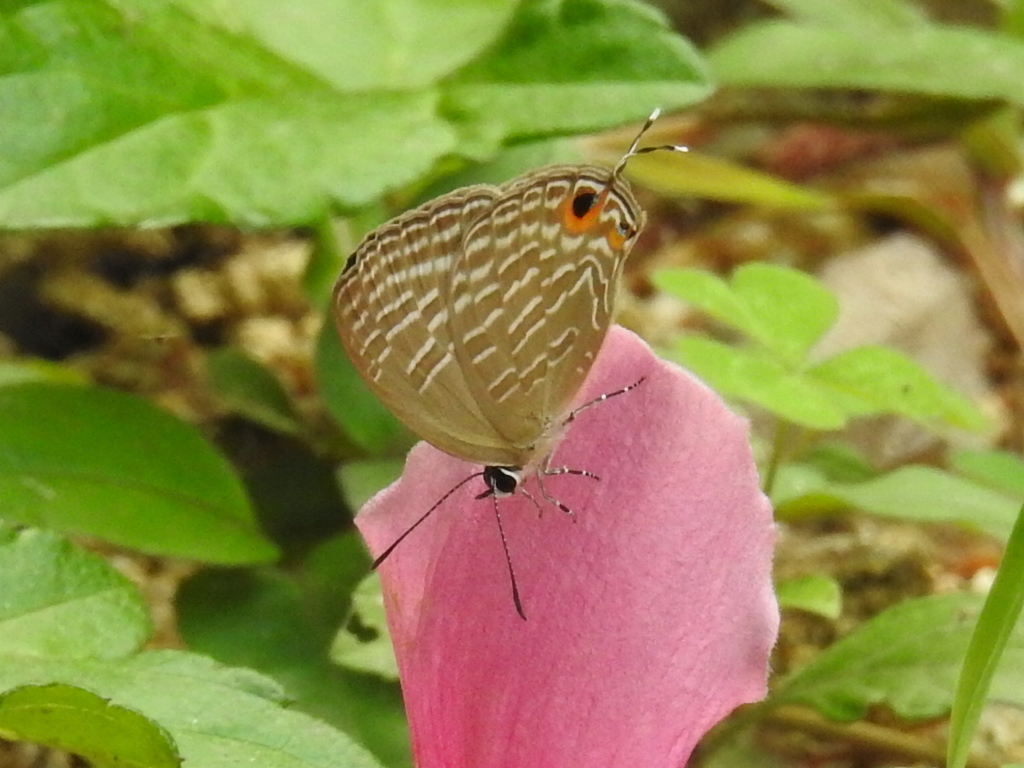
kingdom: Animalia
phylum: Arthropoda
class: Insecta
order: Lepidoptera
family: Lycaenidae
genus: Jamides
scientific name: Jamides alecto
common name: Metallic cerulean
